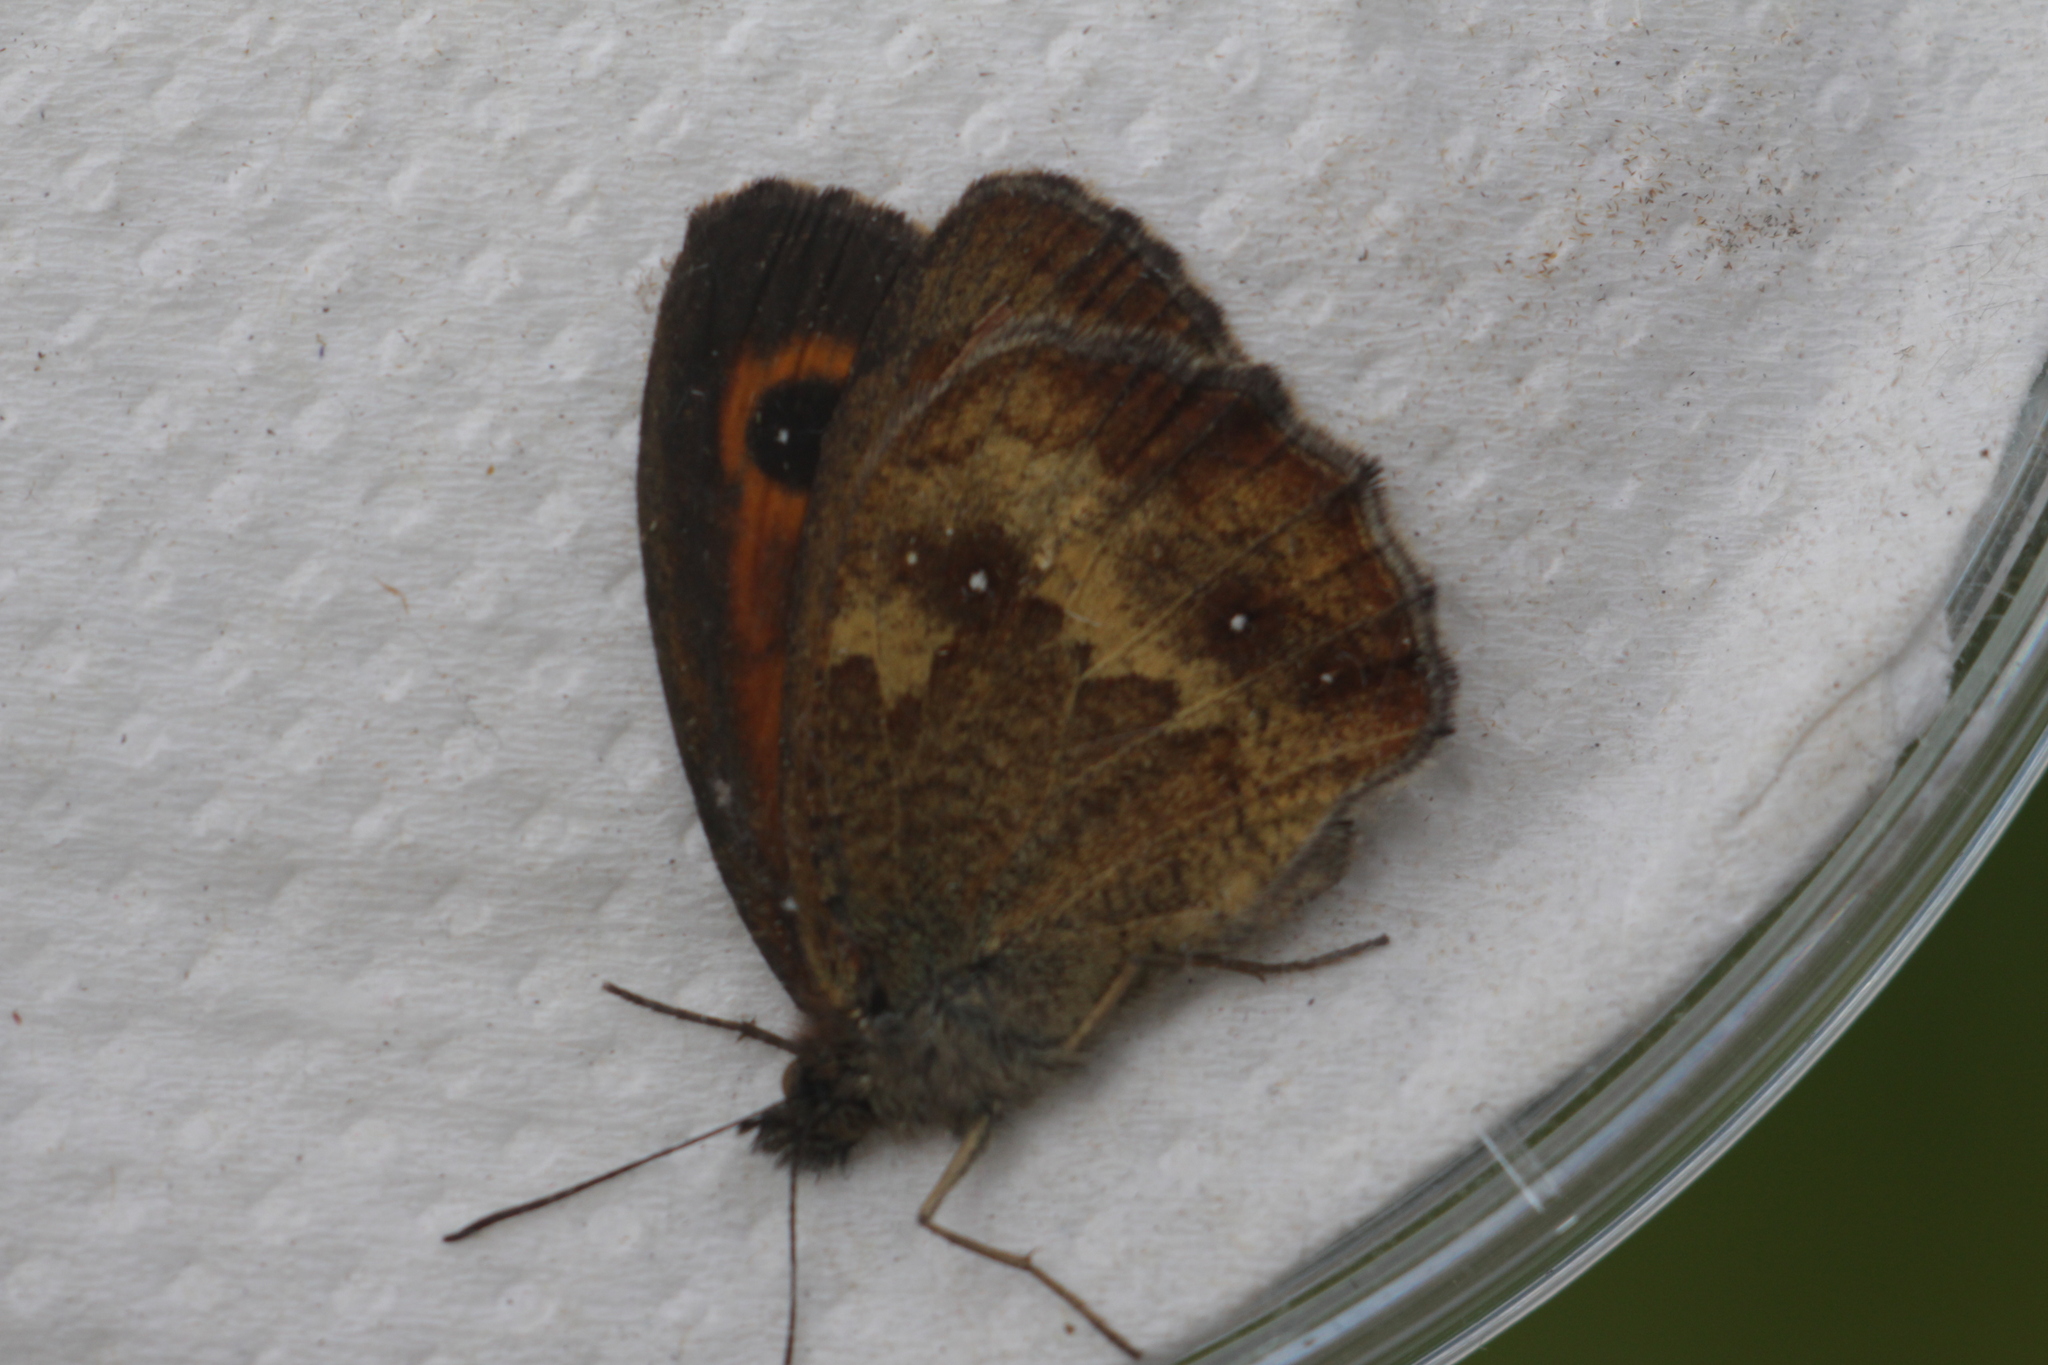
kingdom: Animalia
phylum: Arthropoda
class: Insecta
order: Lepidoptera
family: Nymphalidae
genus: Pyronia
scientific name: Pyronia tithonus
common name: Gatekeeper
